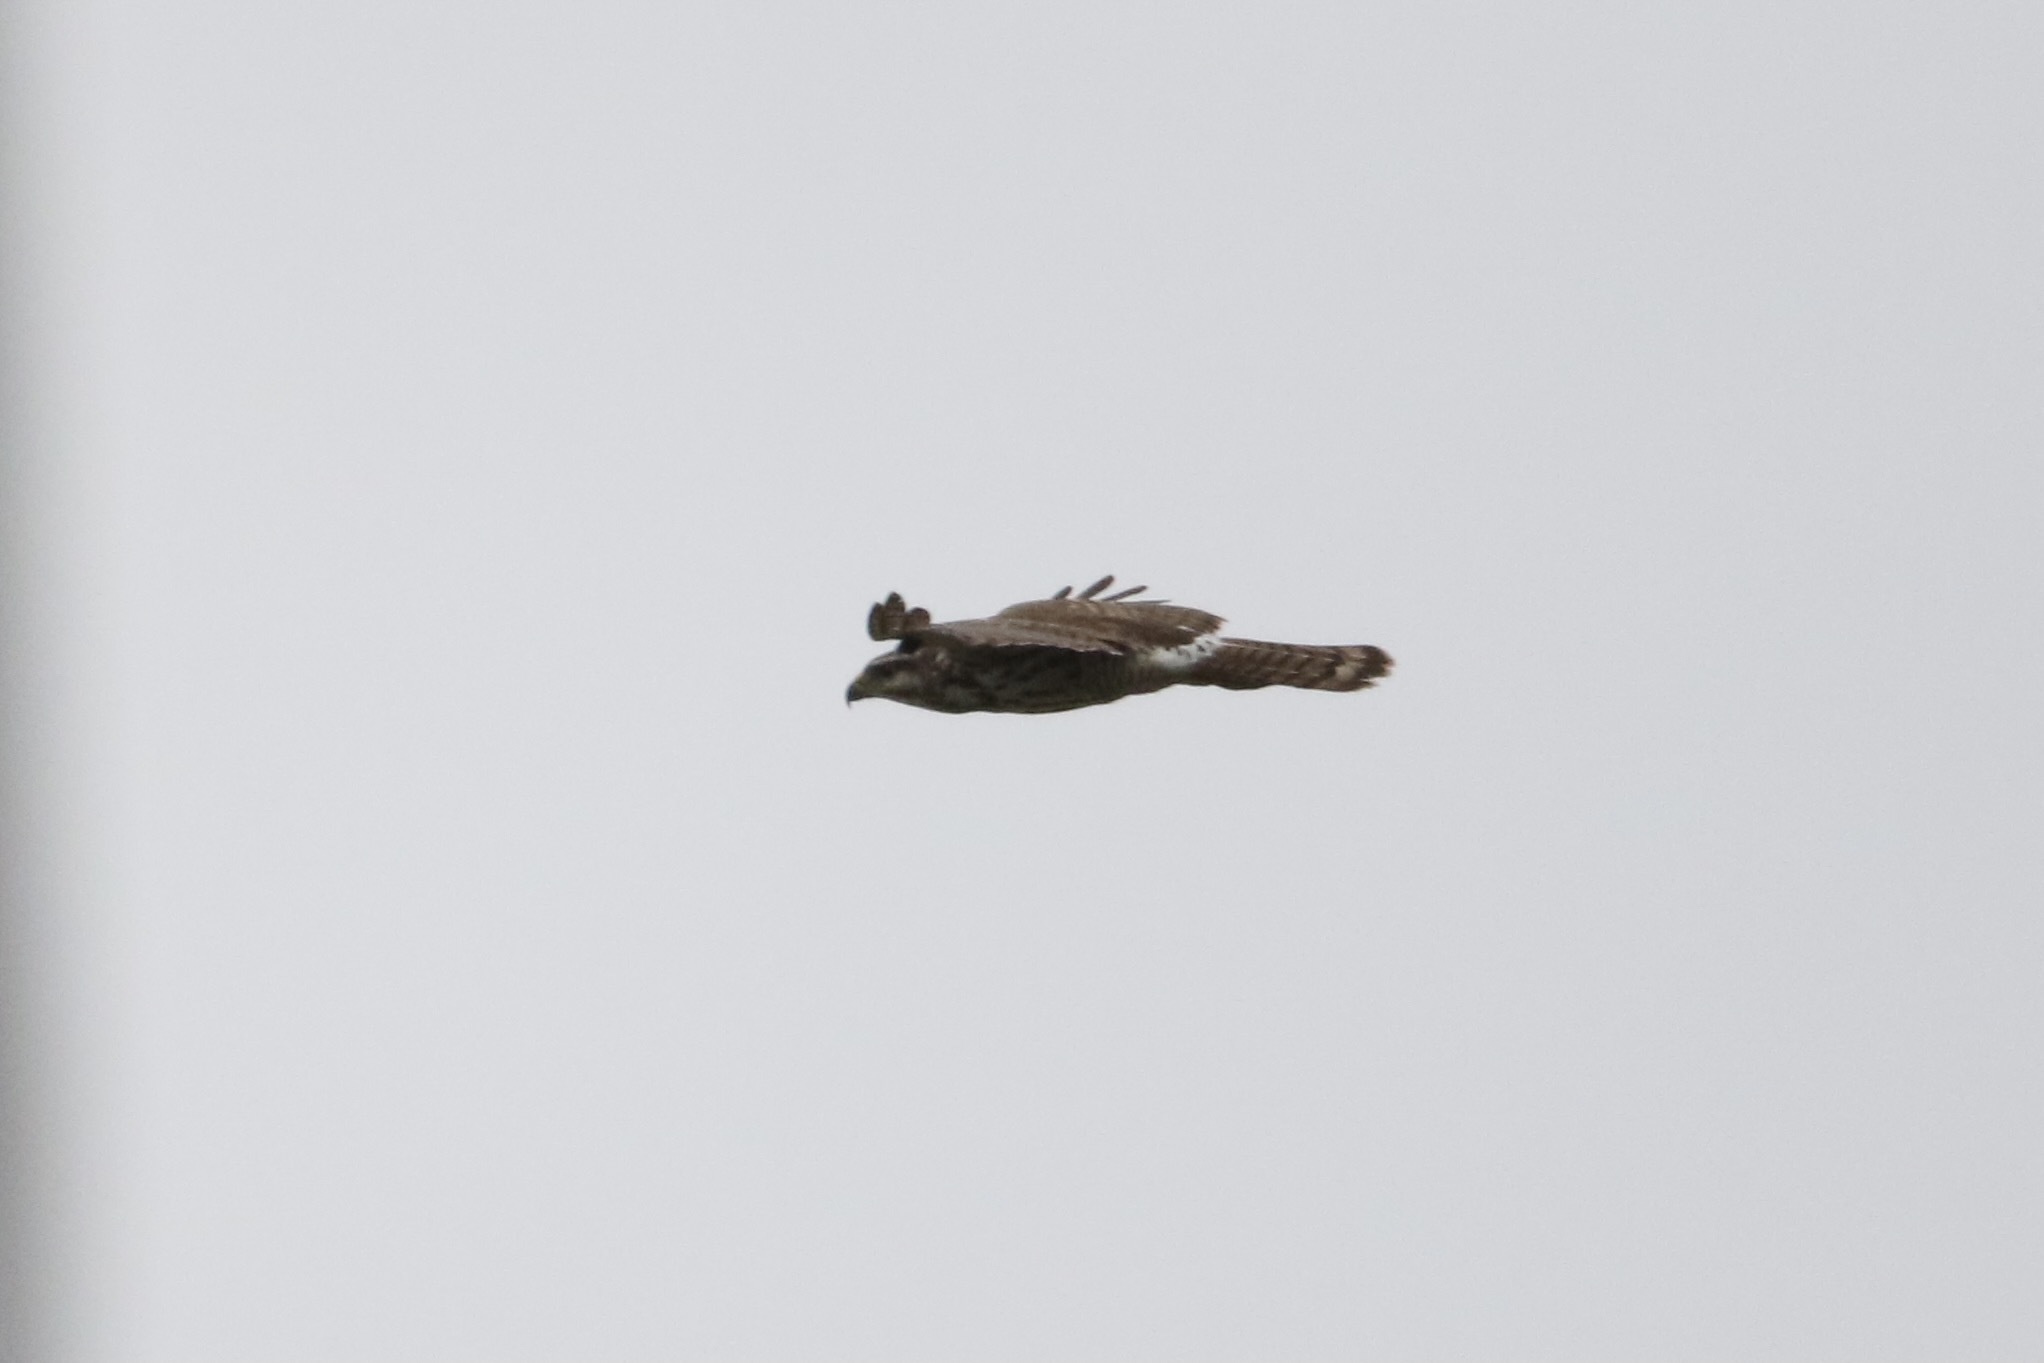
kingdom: Animalia
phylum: Chordata
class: Aves
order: Accipitriformes
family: Accipitridae
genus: Buteo
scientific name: Buteo nitidus
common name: Grey-lined hawk
